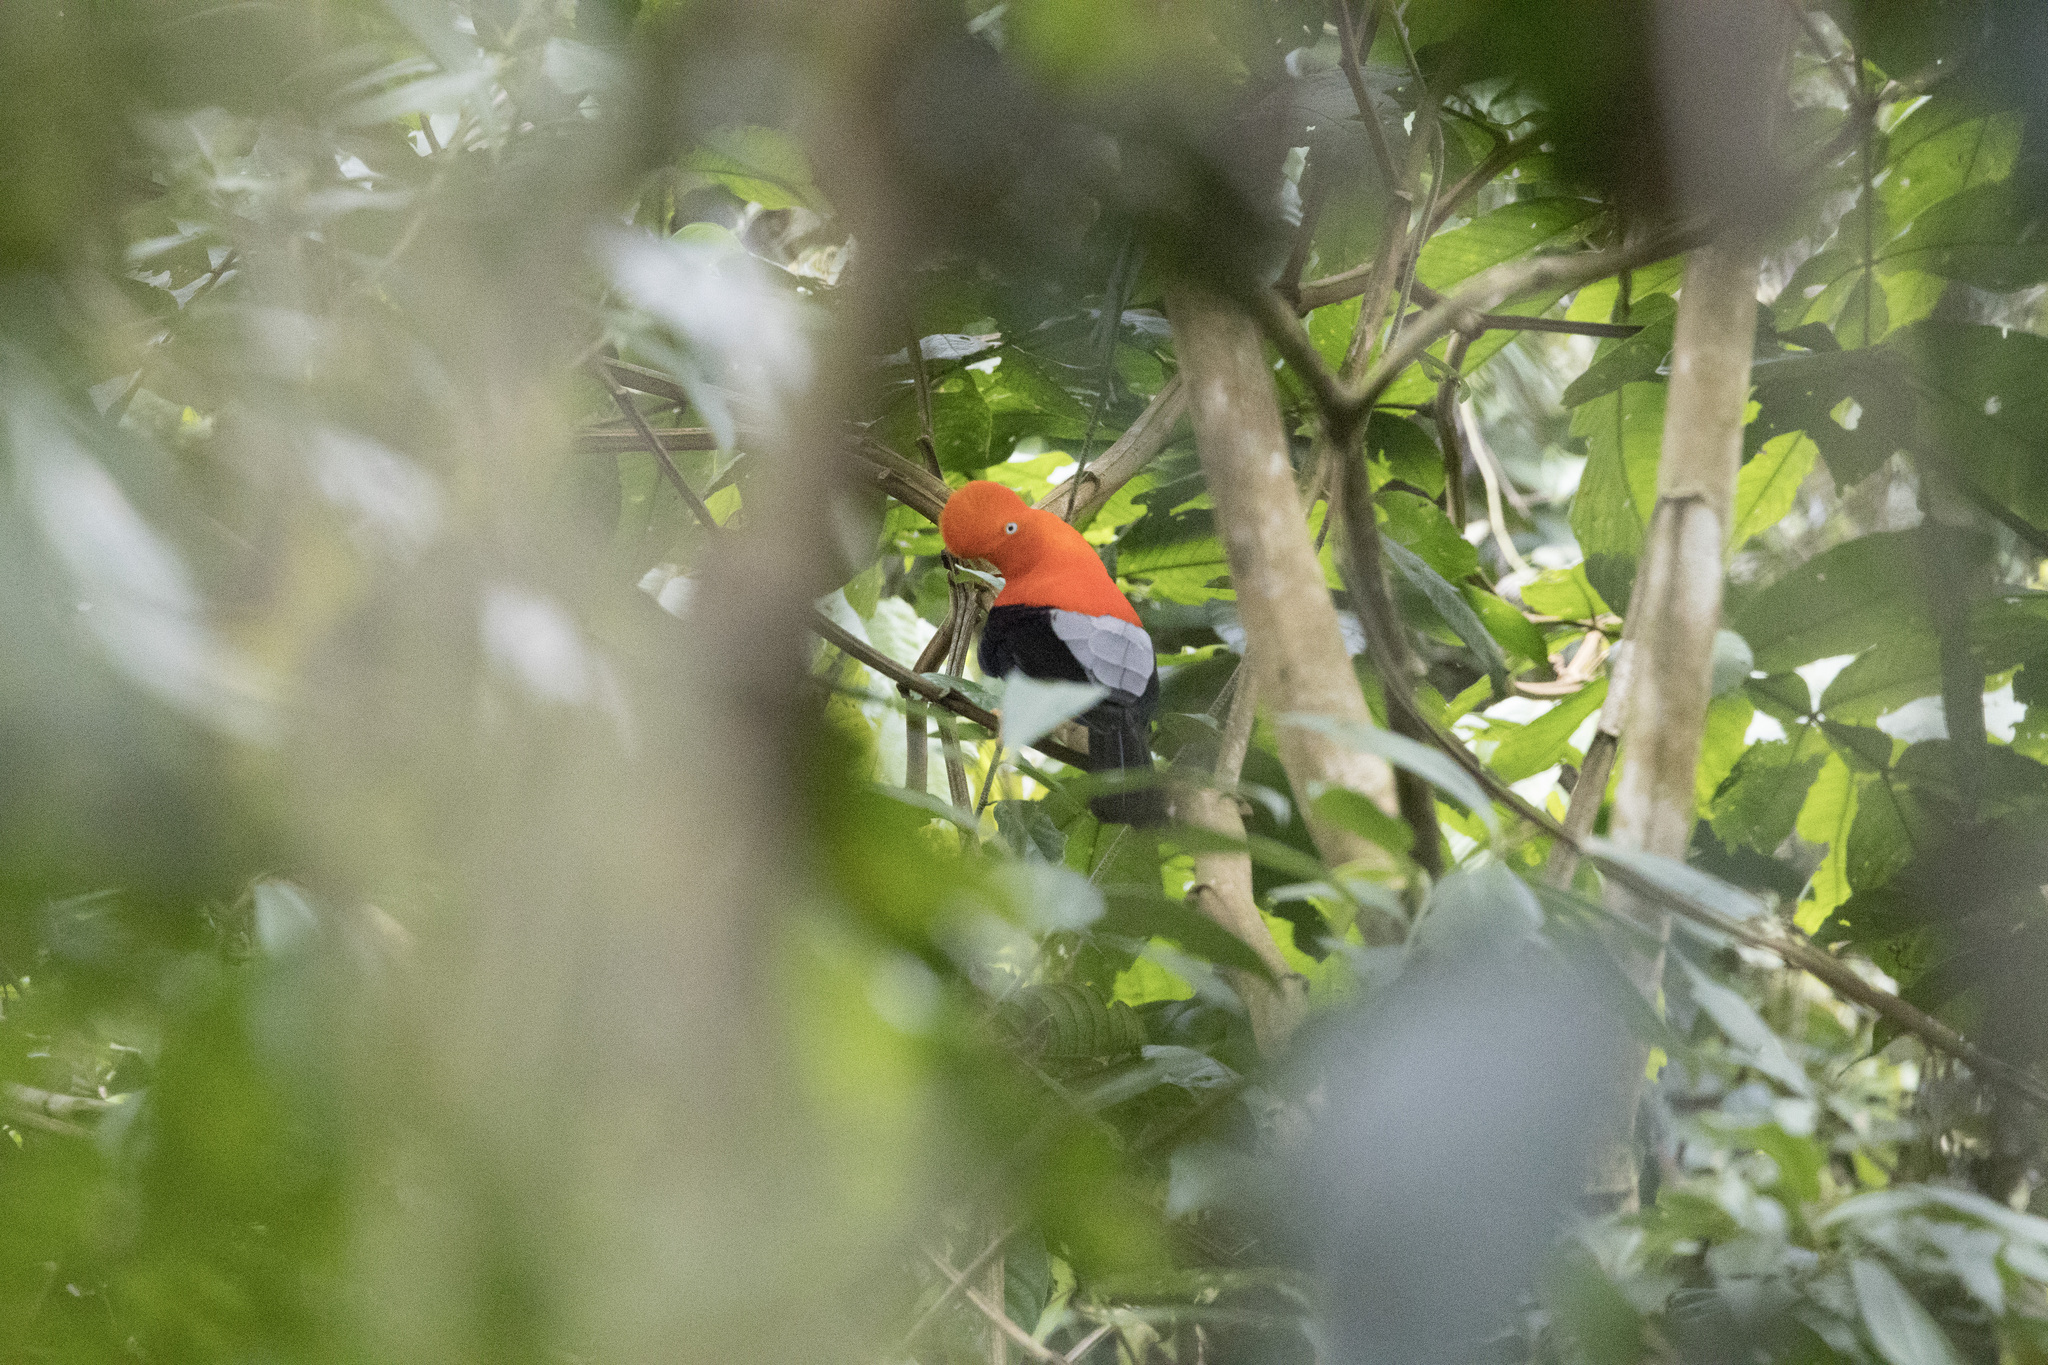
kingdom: Animalia
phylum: Chordata
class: Aves
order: Passeriformes
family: Cotingidae
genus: Rupicola
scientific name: Rupicola peruvianus
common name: Andean cock-of-the-rock
